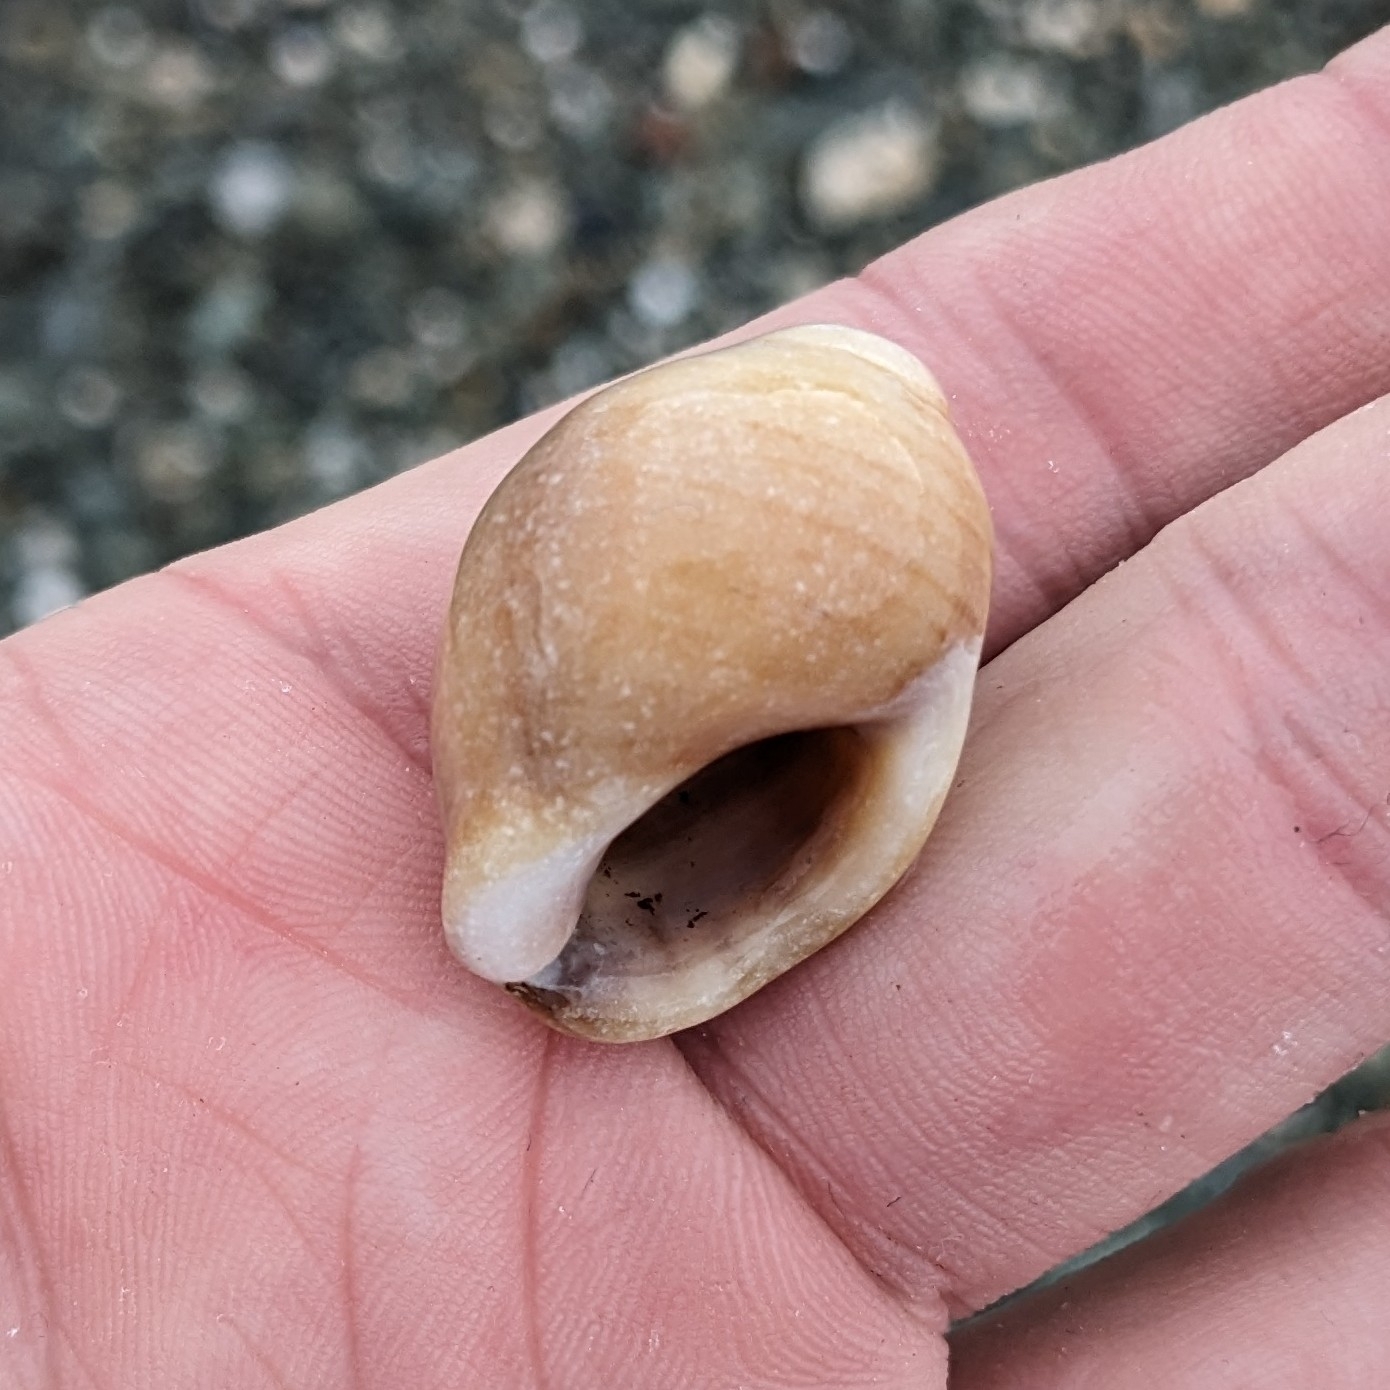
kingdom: Animalia
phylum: Mollusca
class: Gastropoda
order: Neogastropoda
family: Muricidae
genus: Nucella
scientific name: Nucella lapillus
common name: Dog whelk
